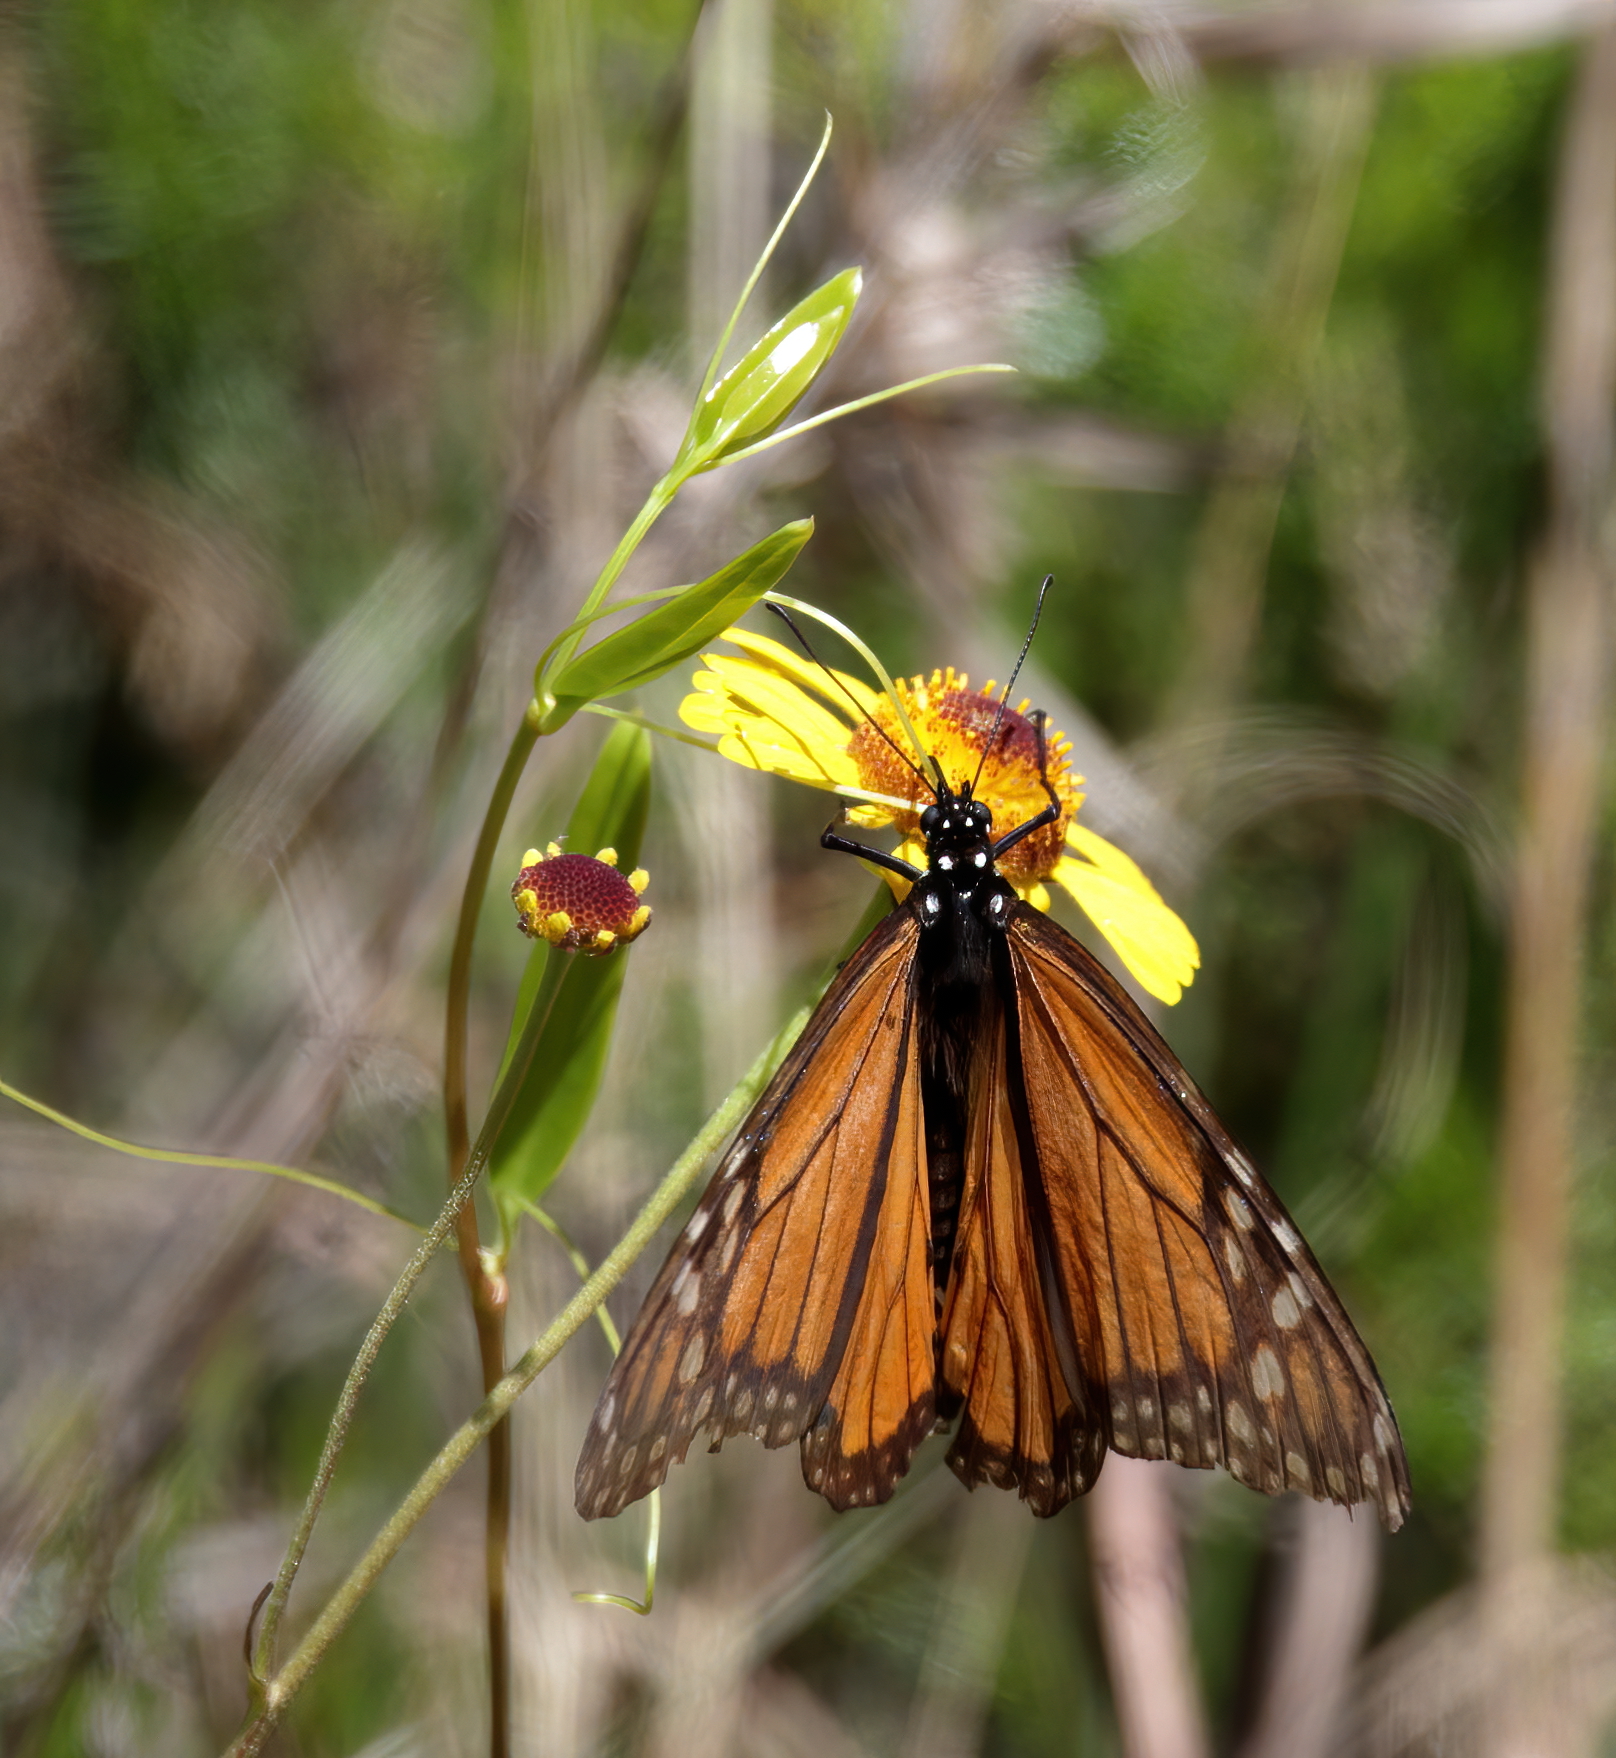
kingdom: Animalia
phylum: Arthropoda
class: Insecta
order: Lepidoptera
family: Nymphalidae
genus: Danaus
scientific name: Danaus plexippus
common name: Monarch
